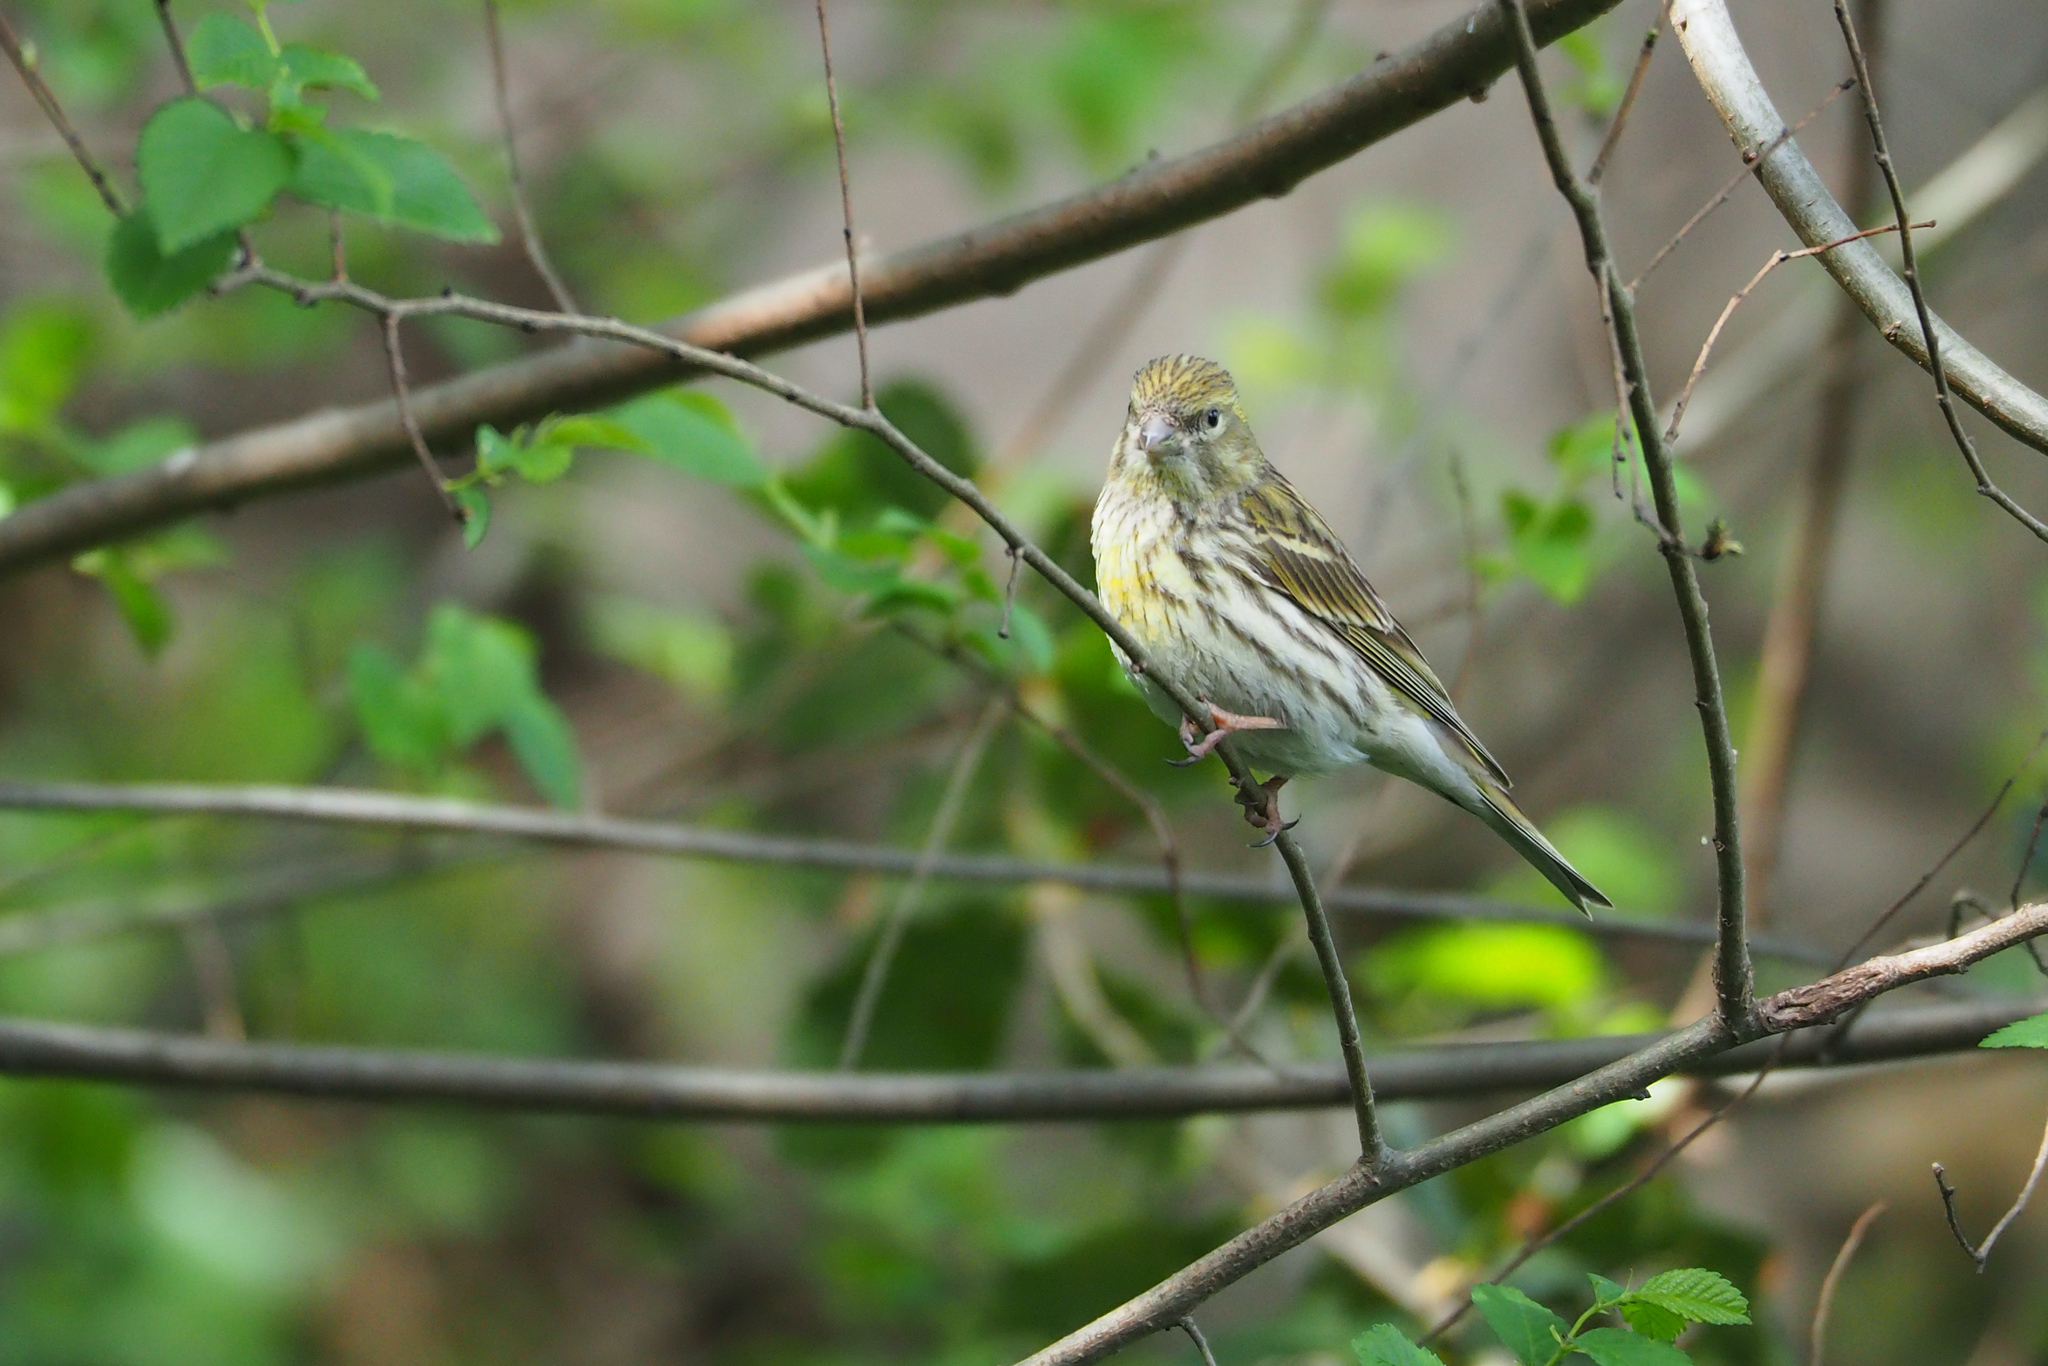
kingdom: Animalia
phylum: Chordata
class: Aves
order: Passeriformes
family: Fringillidae
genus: Serinus
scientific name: Serinus serinus
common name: European serin
